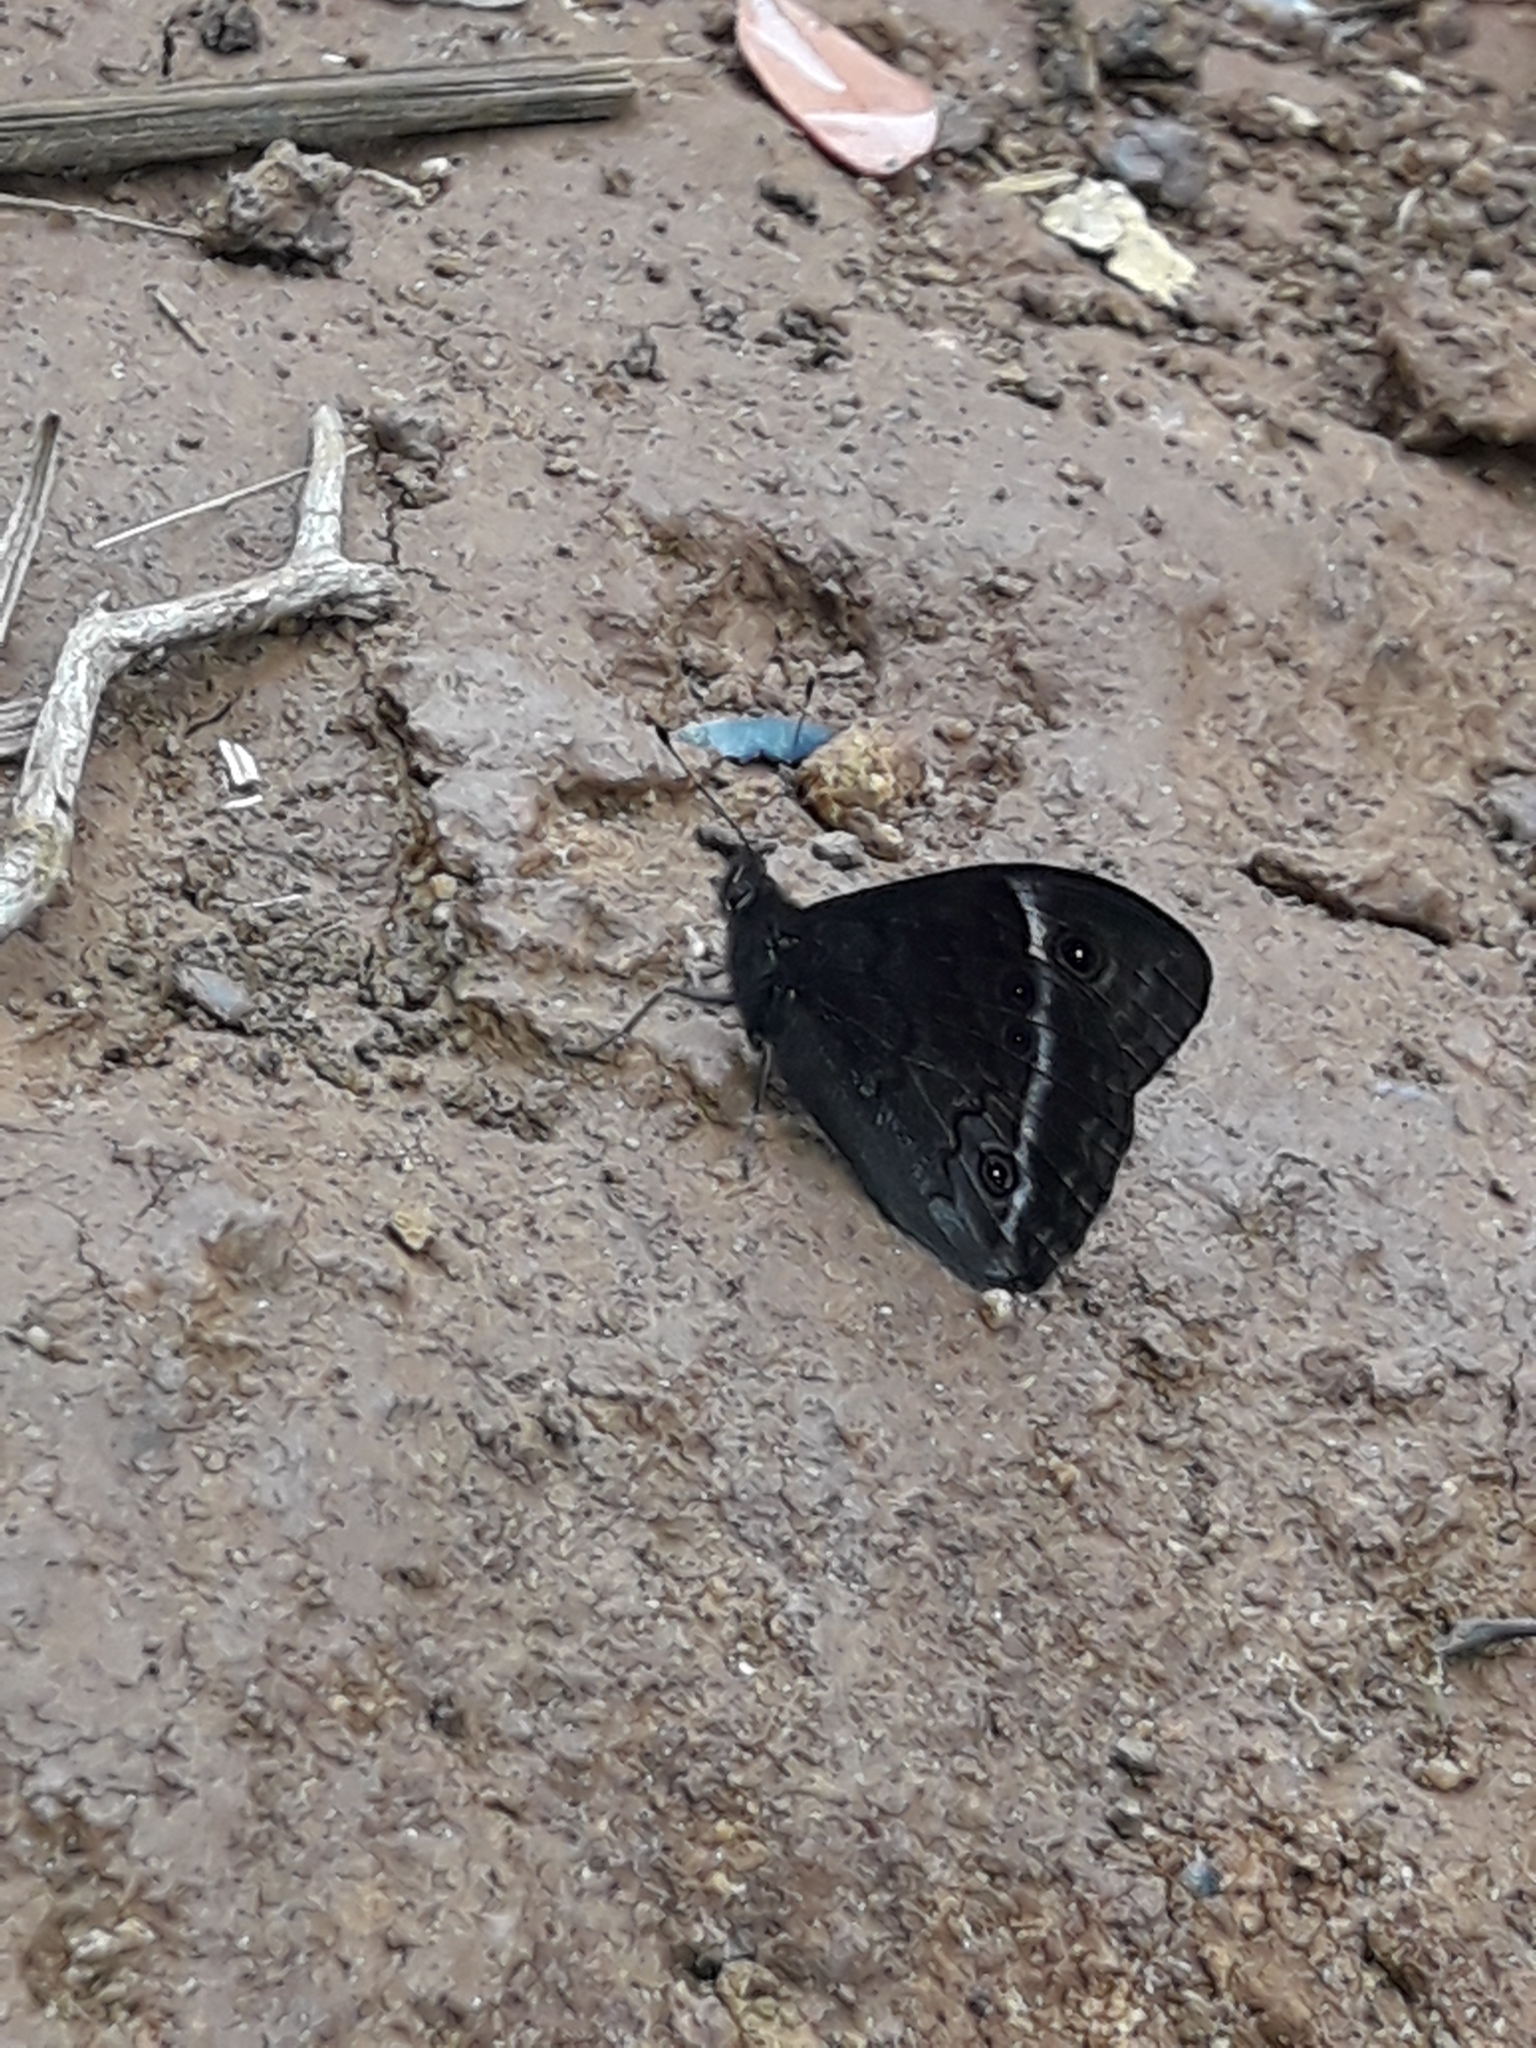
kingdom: Animalia
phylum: Arthropoda
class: Insecta
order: Lepidoptera
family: Nymphalidae
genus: Paratisiphone
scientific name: Paratisiphone lyrnessa
